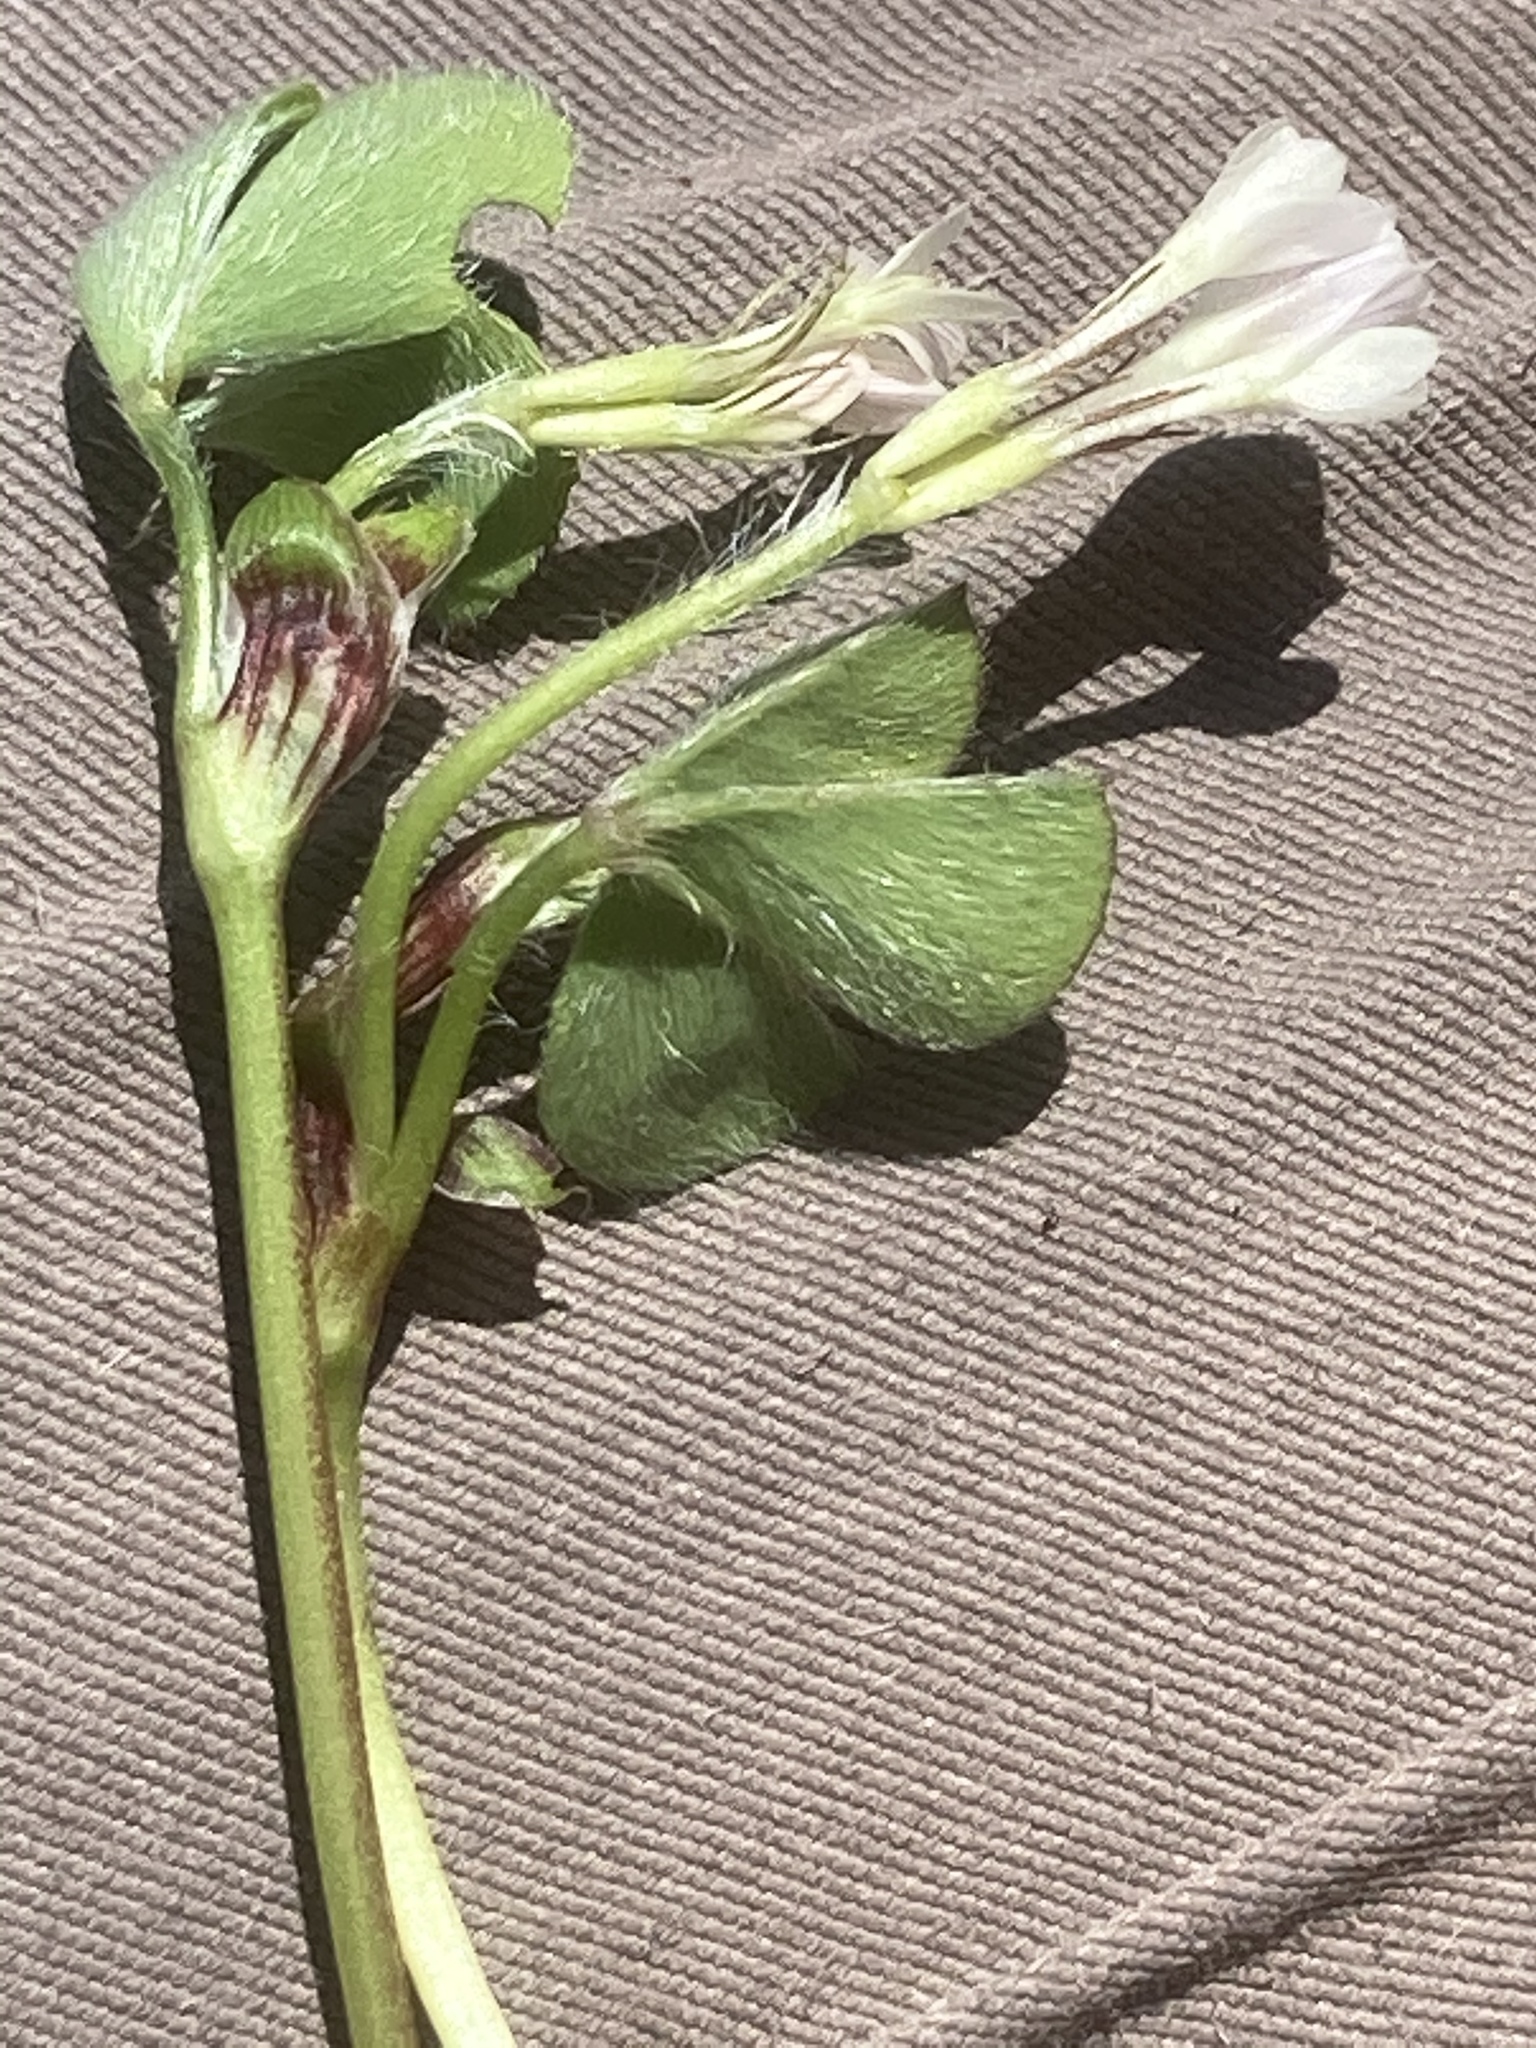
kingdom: Plantae
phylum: Tracheophyta
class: Magnoliopsida
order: Fabales
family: Fabaceae
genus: Trifolium
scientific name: Trifolium subterraneum
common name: Subterranean clover
